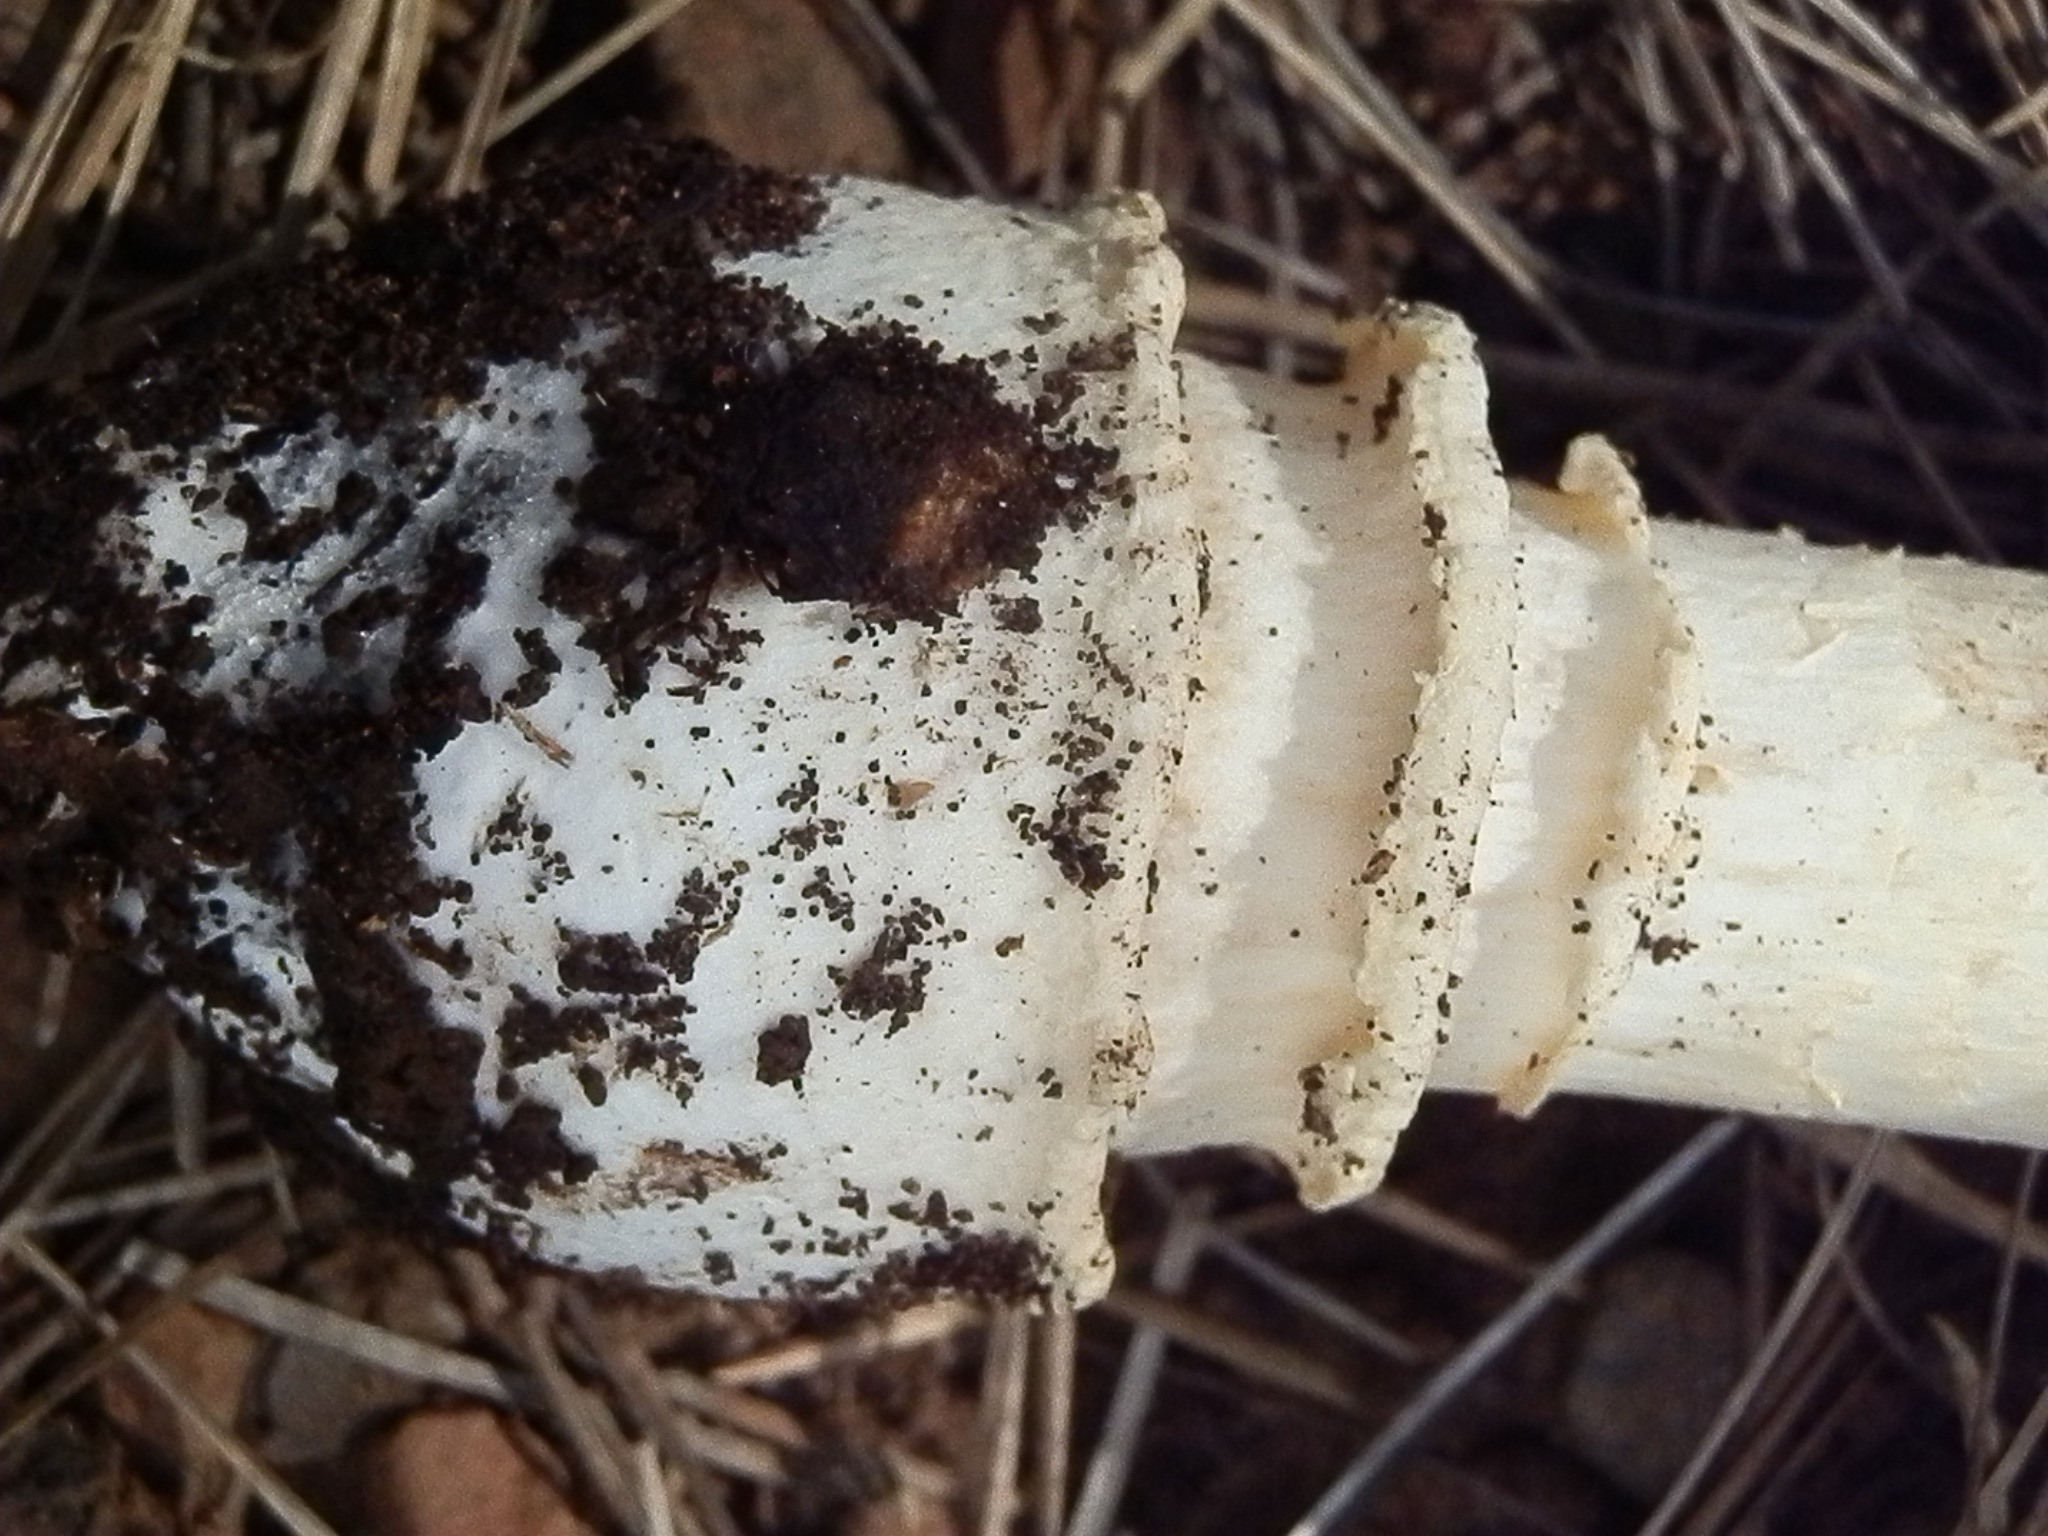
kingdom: Fungi
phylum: Basidiomycota
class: Agaricomycetes
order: Agaricales
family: Amanitaceae
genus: Amanita
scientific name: Amanita muscaria
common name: Fly agaric
